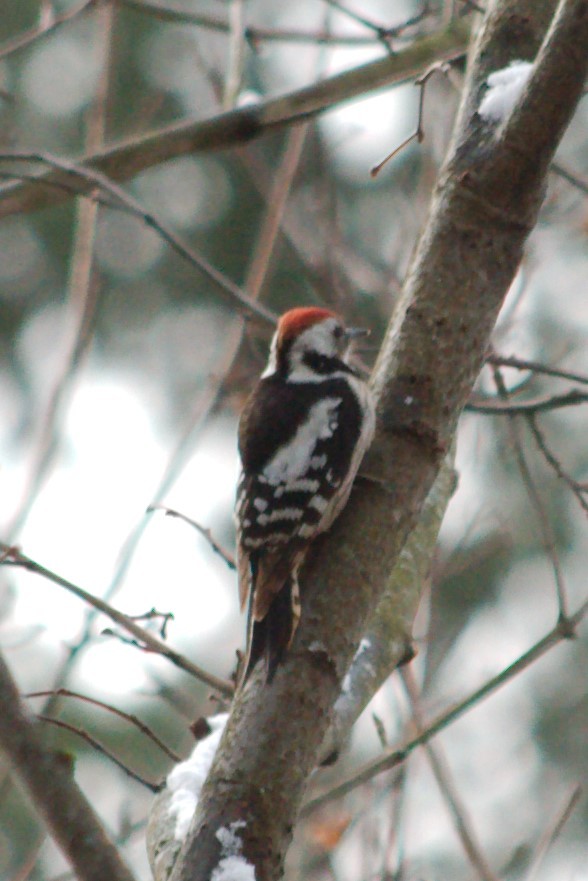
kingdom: Animalia
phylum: Chordata
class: Aves
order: Piciformes
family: Picidae
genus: Dendrocoptes
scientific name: Dendrocoptes medius
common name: Middle spotted woodpecker
